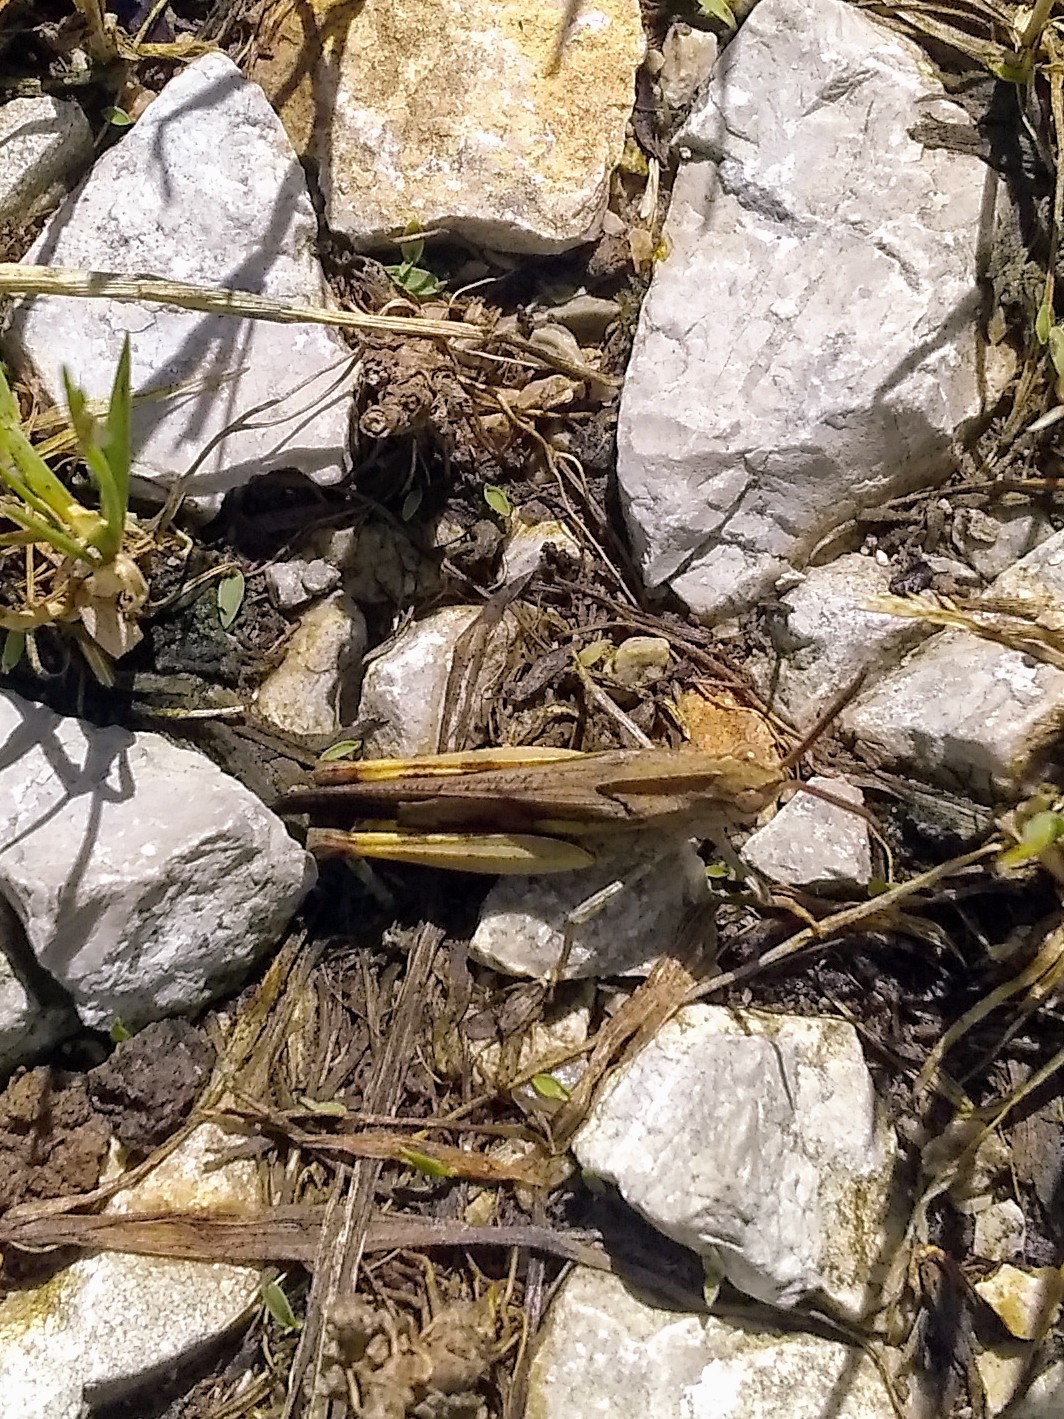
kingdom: Animalia
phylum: Arthropoda
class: Insecta
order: Orthoptera
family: Acrididae
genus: Chortophaga
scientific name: Chortophaga viridifasciata
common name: Green-striped grasshopper
